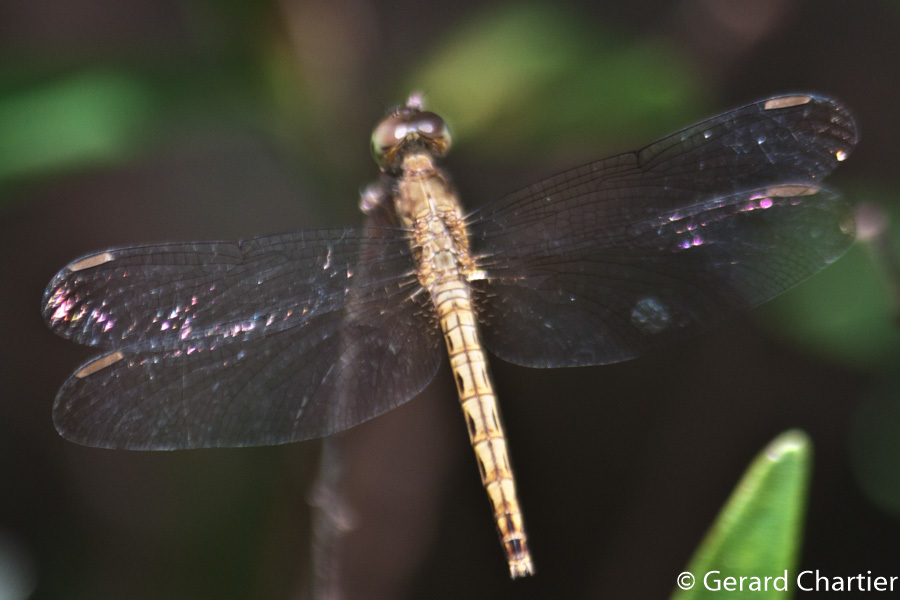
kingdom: Animalia
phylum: Arthropoda
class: Insecta
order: Odonata
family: Libellulidae
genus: Neurothemis
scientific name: Neurothemis fluctuans
